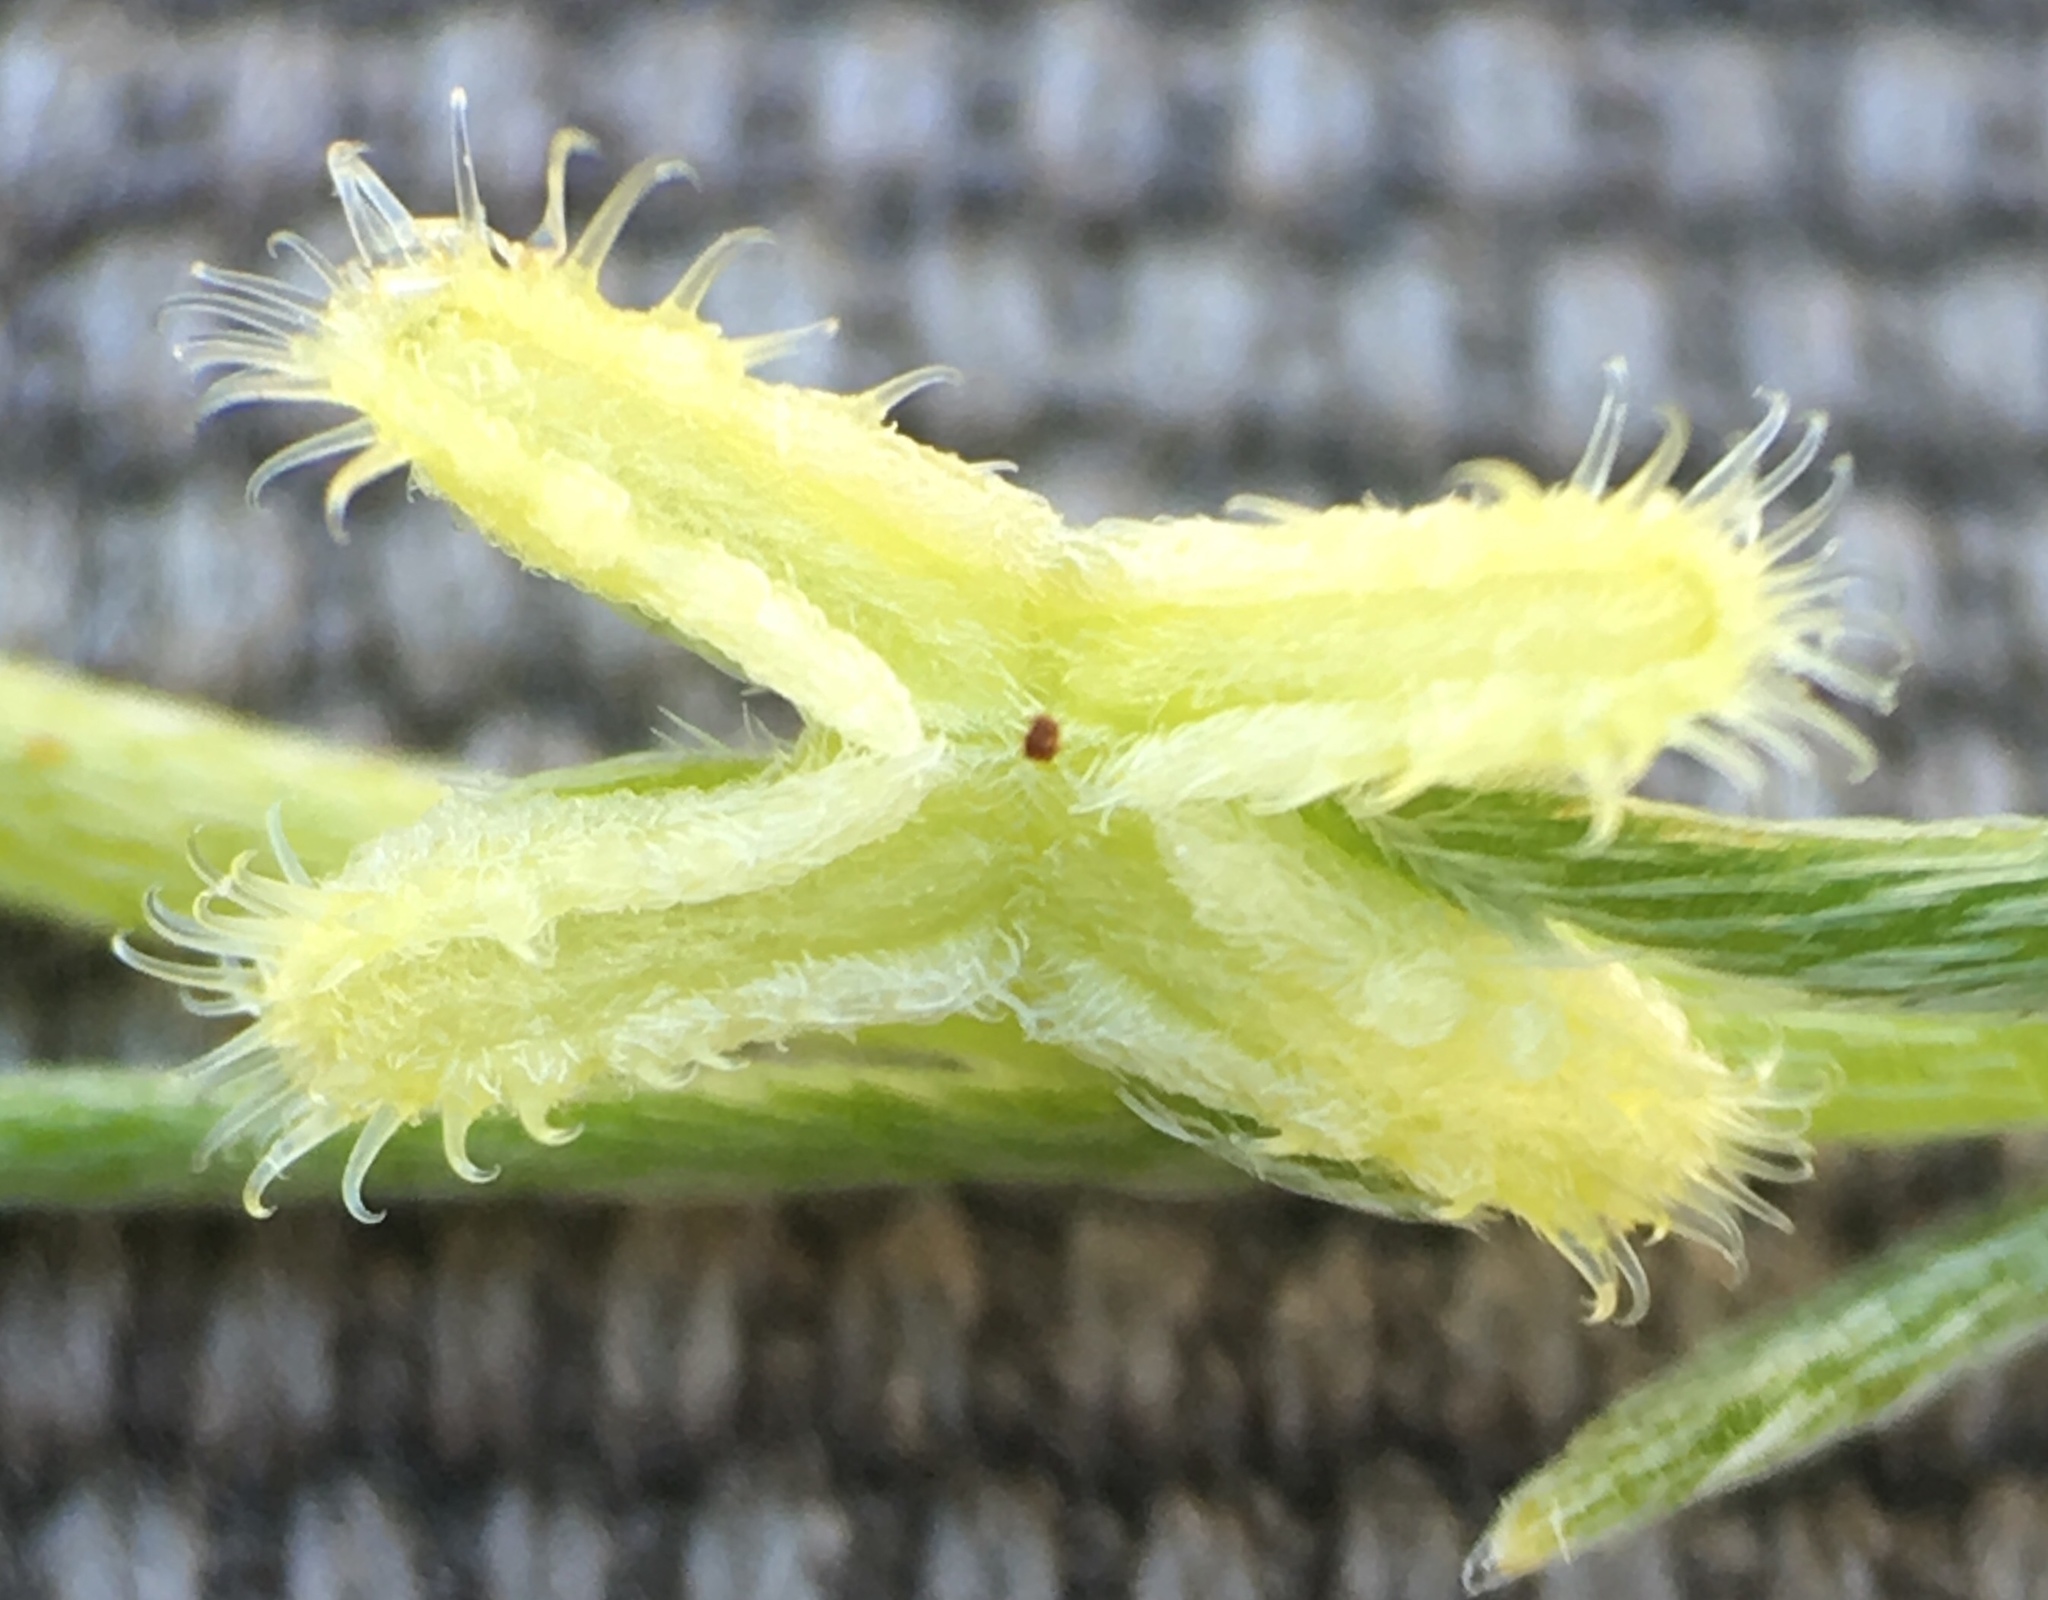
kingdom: Plantae
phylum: Tracheophyta
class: Magnoliopsida
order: Boraginales
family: Boraginaceae
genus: Pectocarya
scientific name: Pectocarya linearis
